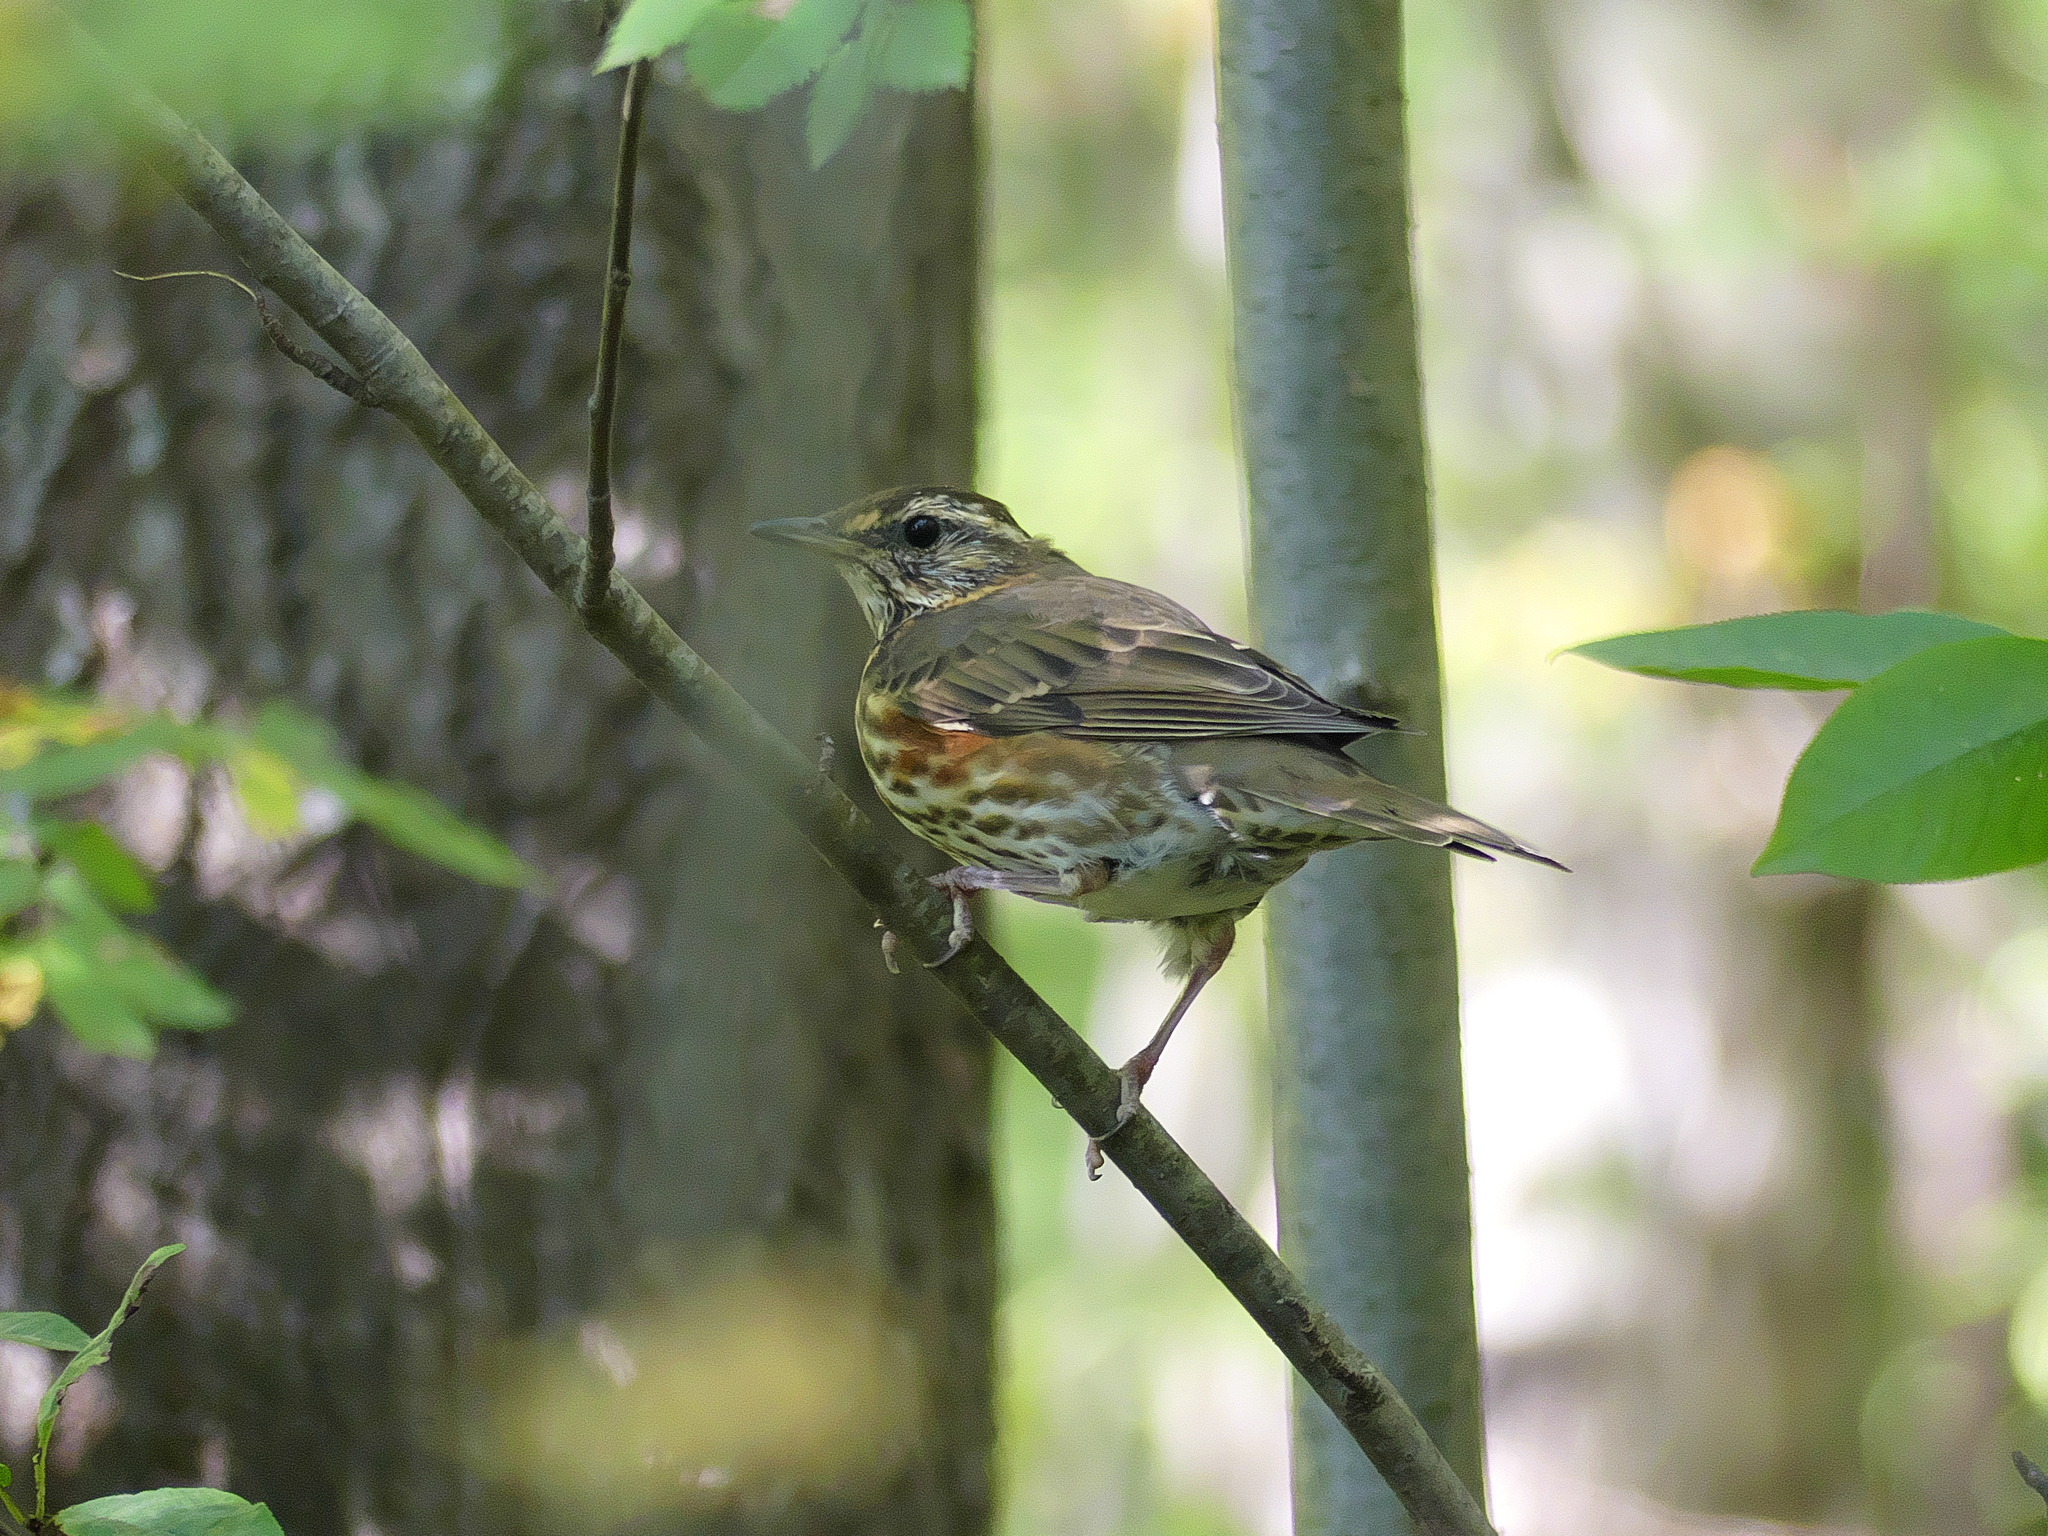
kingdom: Animalia
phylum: Chordata
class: Aves
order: Passeriformes
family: Turdidae
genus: Turdus
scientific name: Turdus iliacus
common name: Redwing
